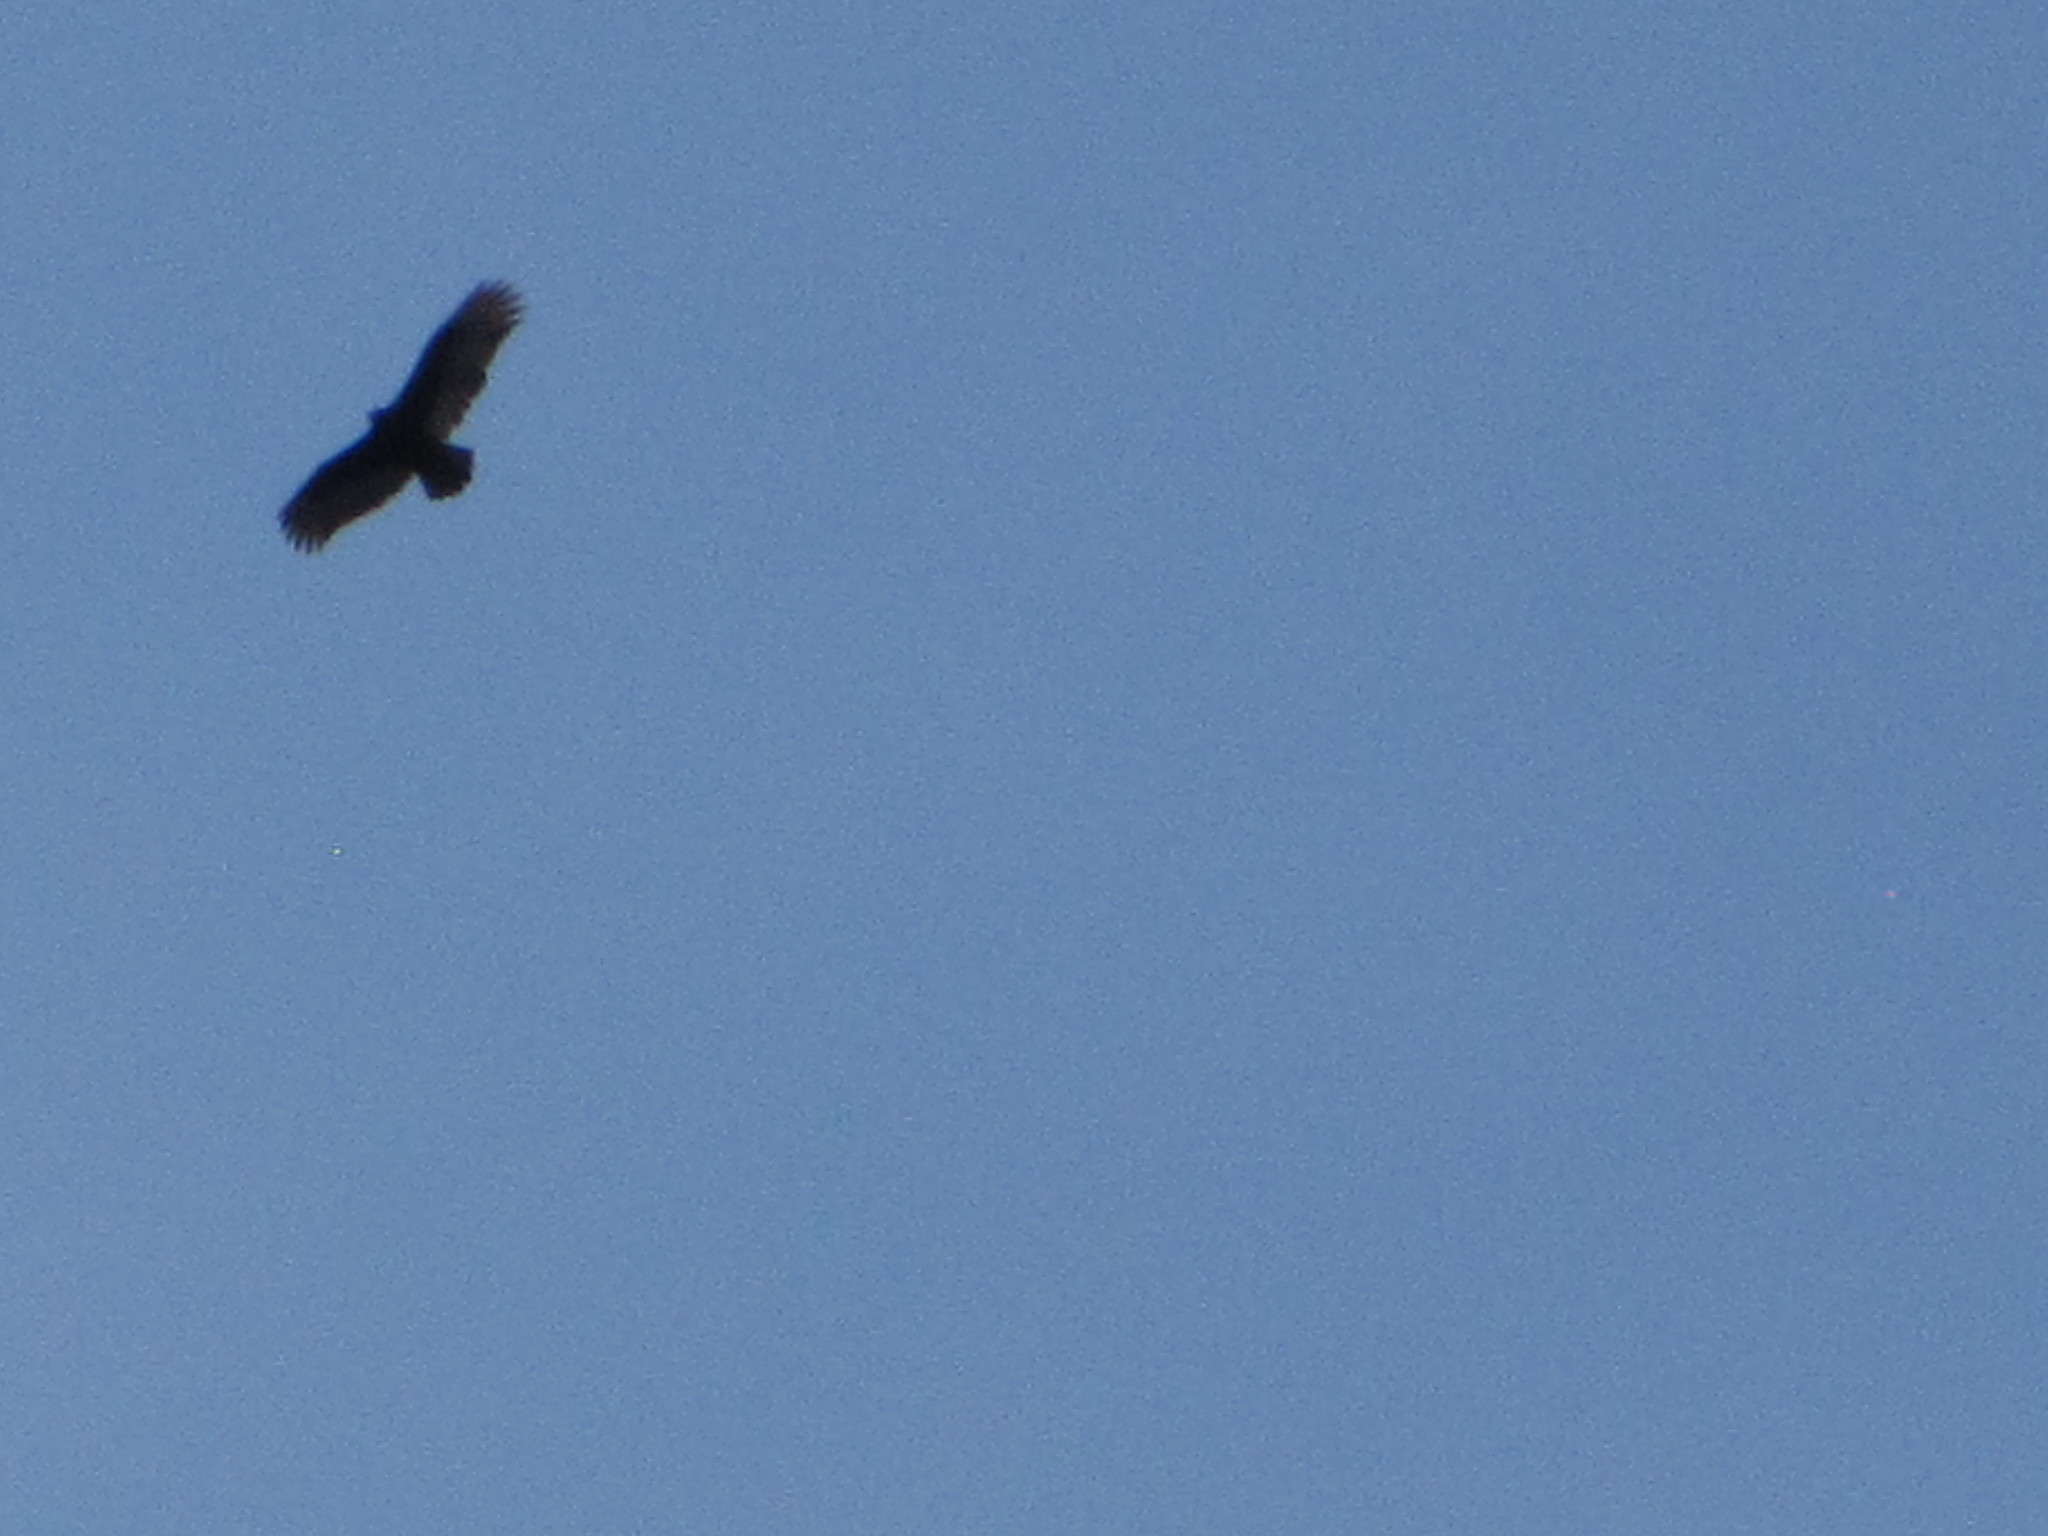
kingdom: Animalia
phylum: Chordata
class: Aves
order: Accipitriformes
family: Cathartidae
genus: Cathartes
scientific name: Cathartes aura
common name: Turkey vulture
